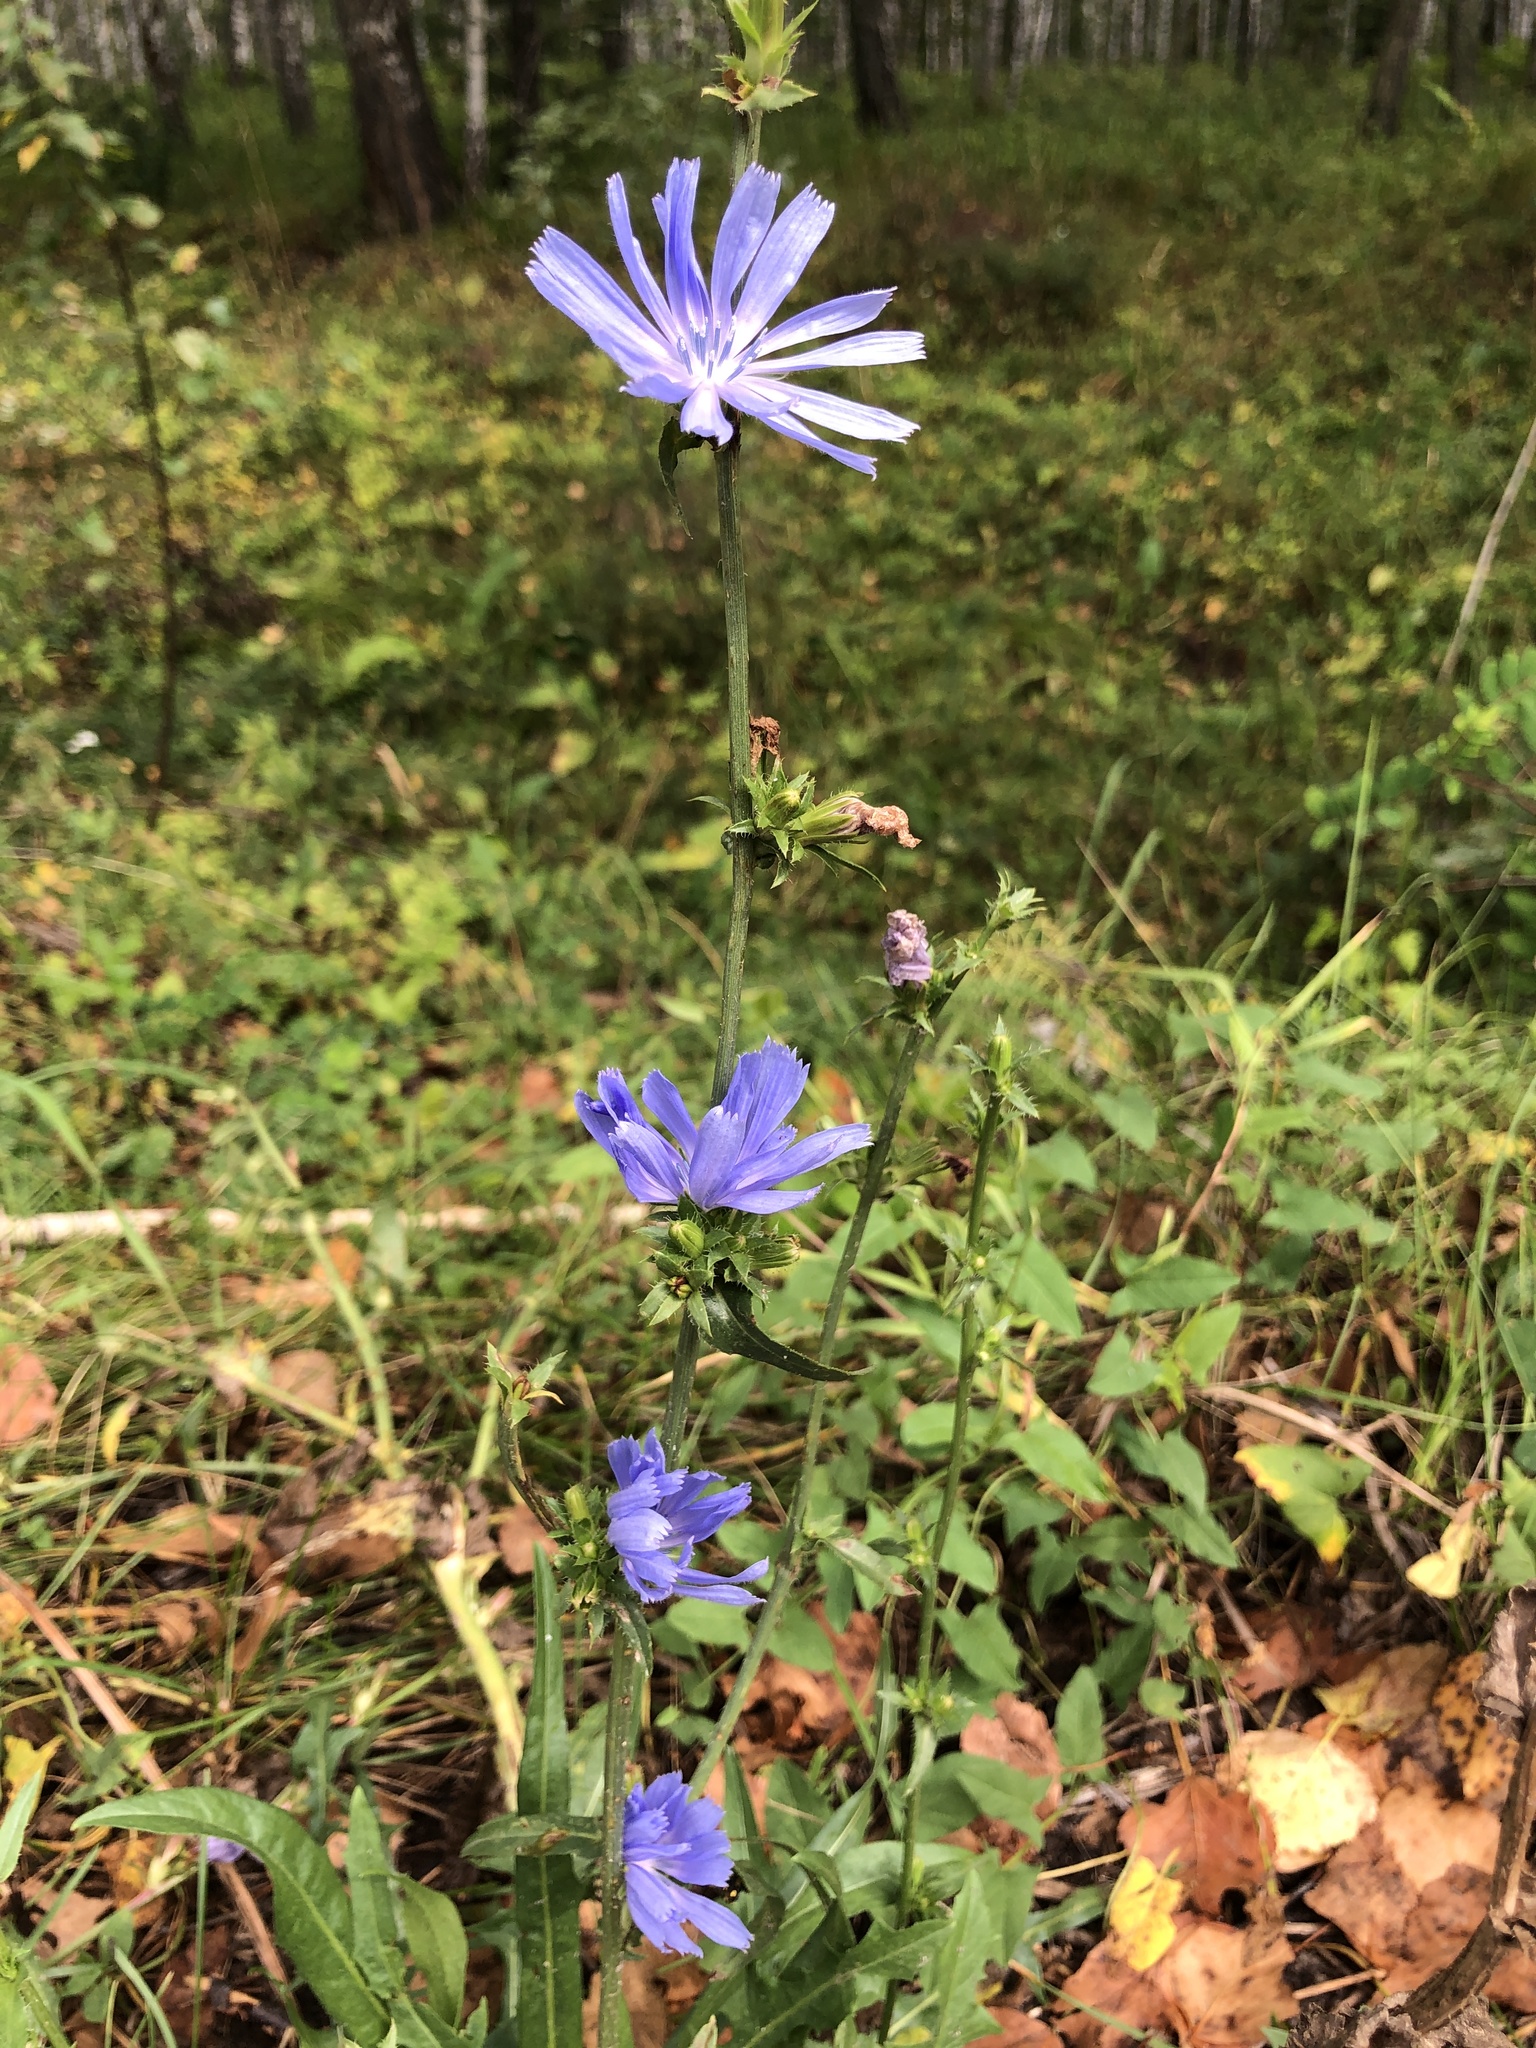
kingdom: Plantae
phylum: Tracheophyta
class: Magnoliopsida
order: Asterales
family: Asteraceae
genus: Cichorium
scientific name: Cichorium intybus
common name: Chicory
